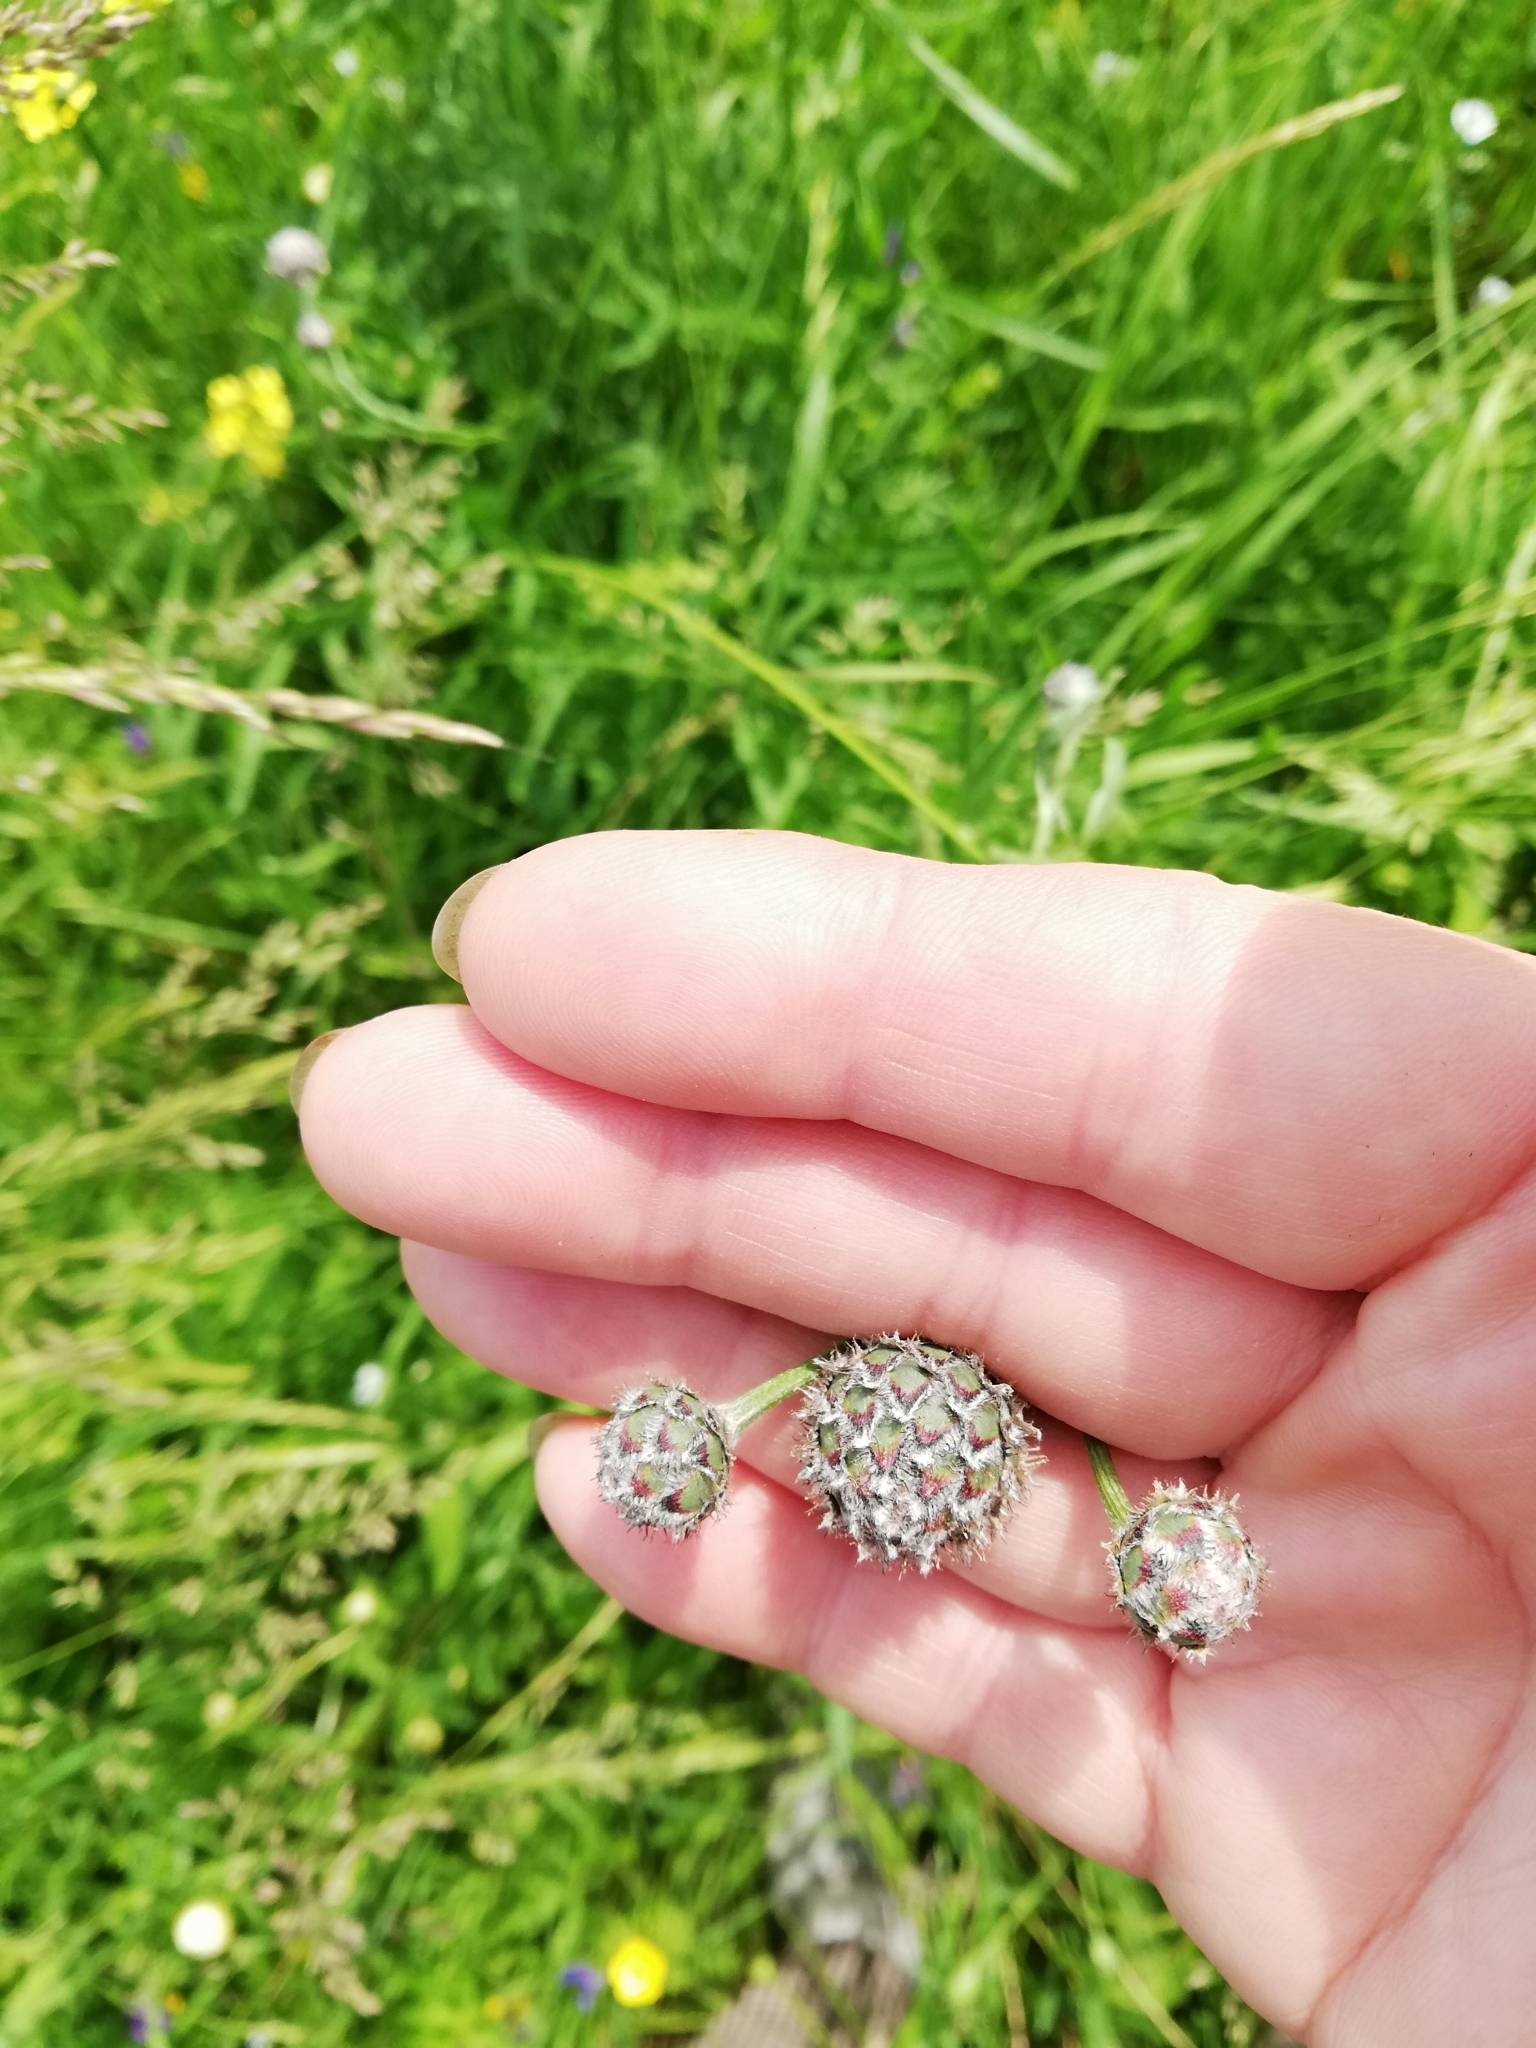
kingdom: Plantae
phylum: Tracheophyta
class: Magnoliopsida
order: Asterales
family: Asteraceae
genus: Centaurea
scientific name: Centaurea scabiosa
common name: Greater knapweed
